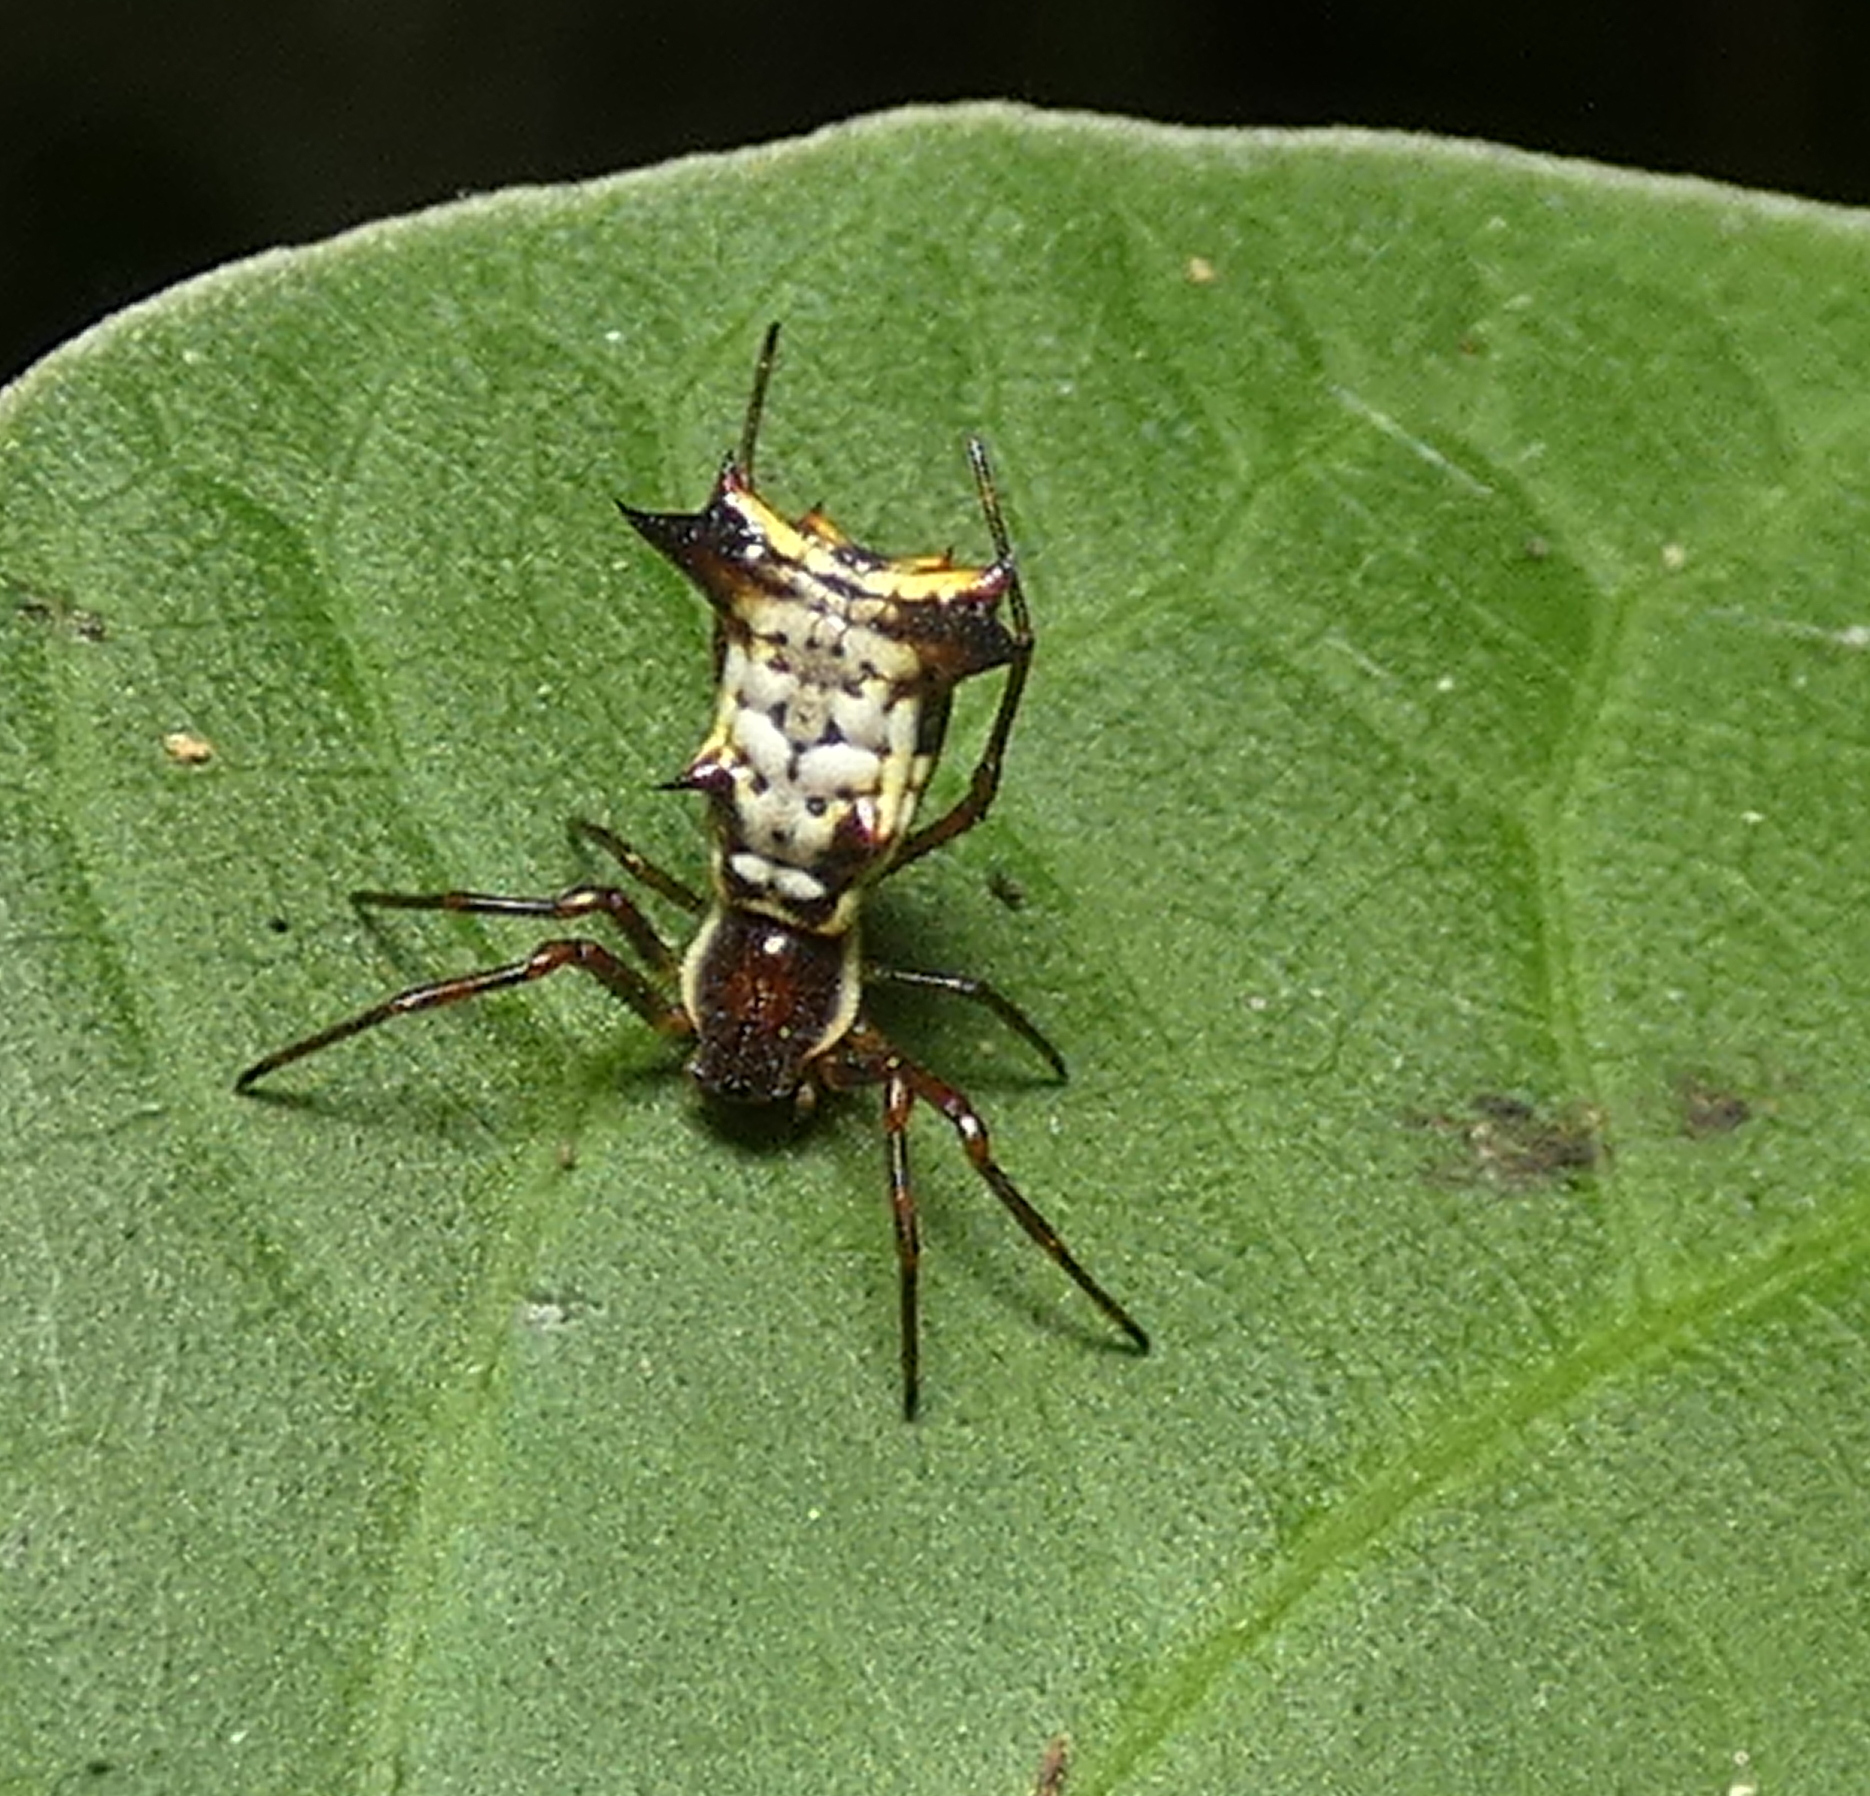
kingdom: Animalia
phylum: Arthropoda
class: Arachnida
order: Araneae
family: Araneidae
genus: Micrathena
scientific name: Micrathena fissispina
